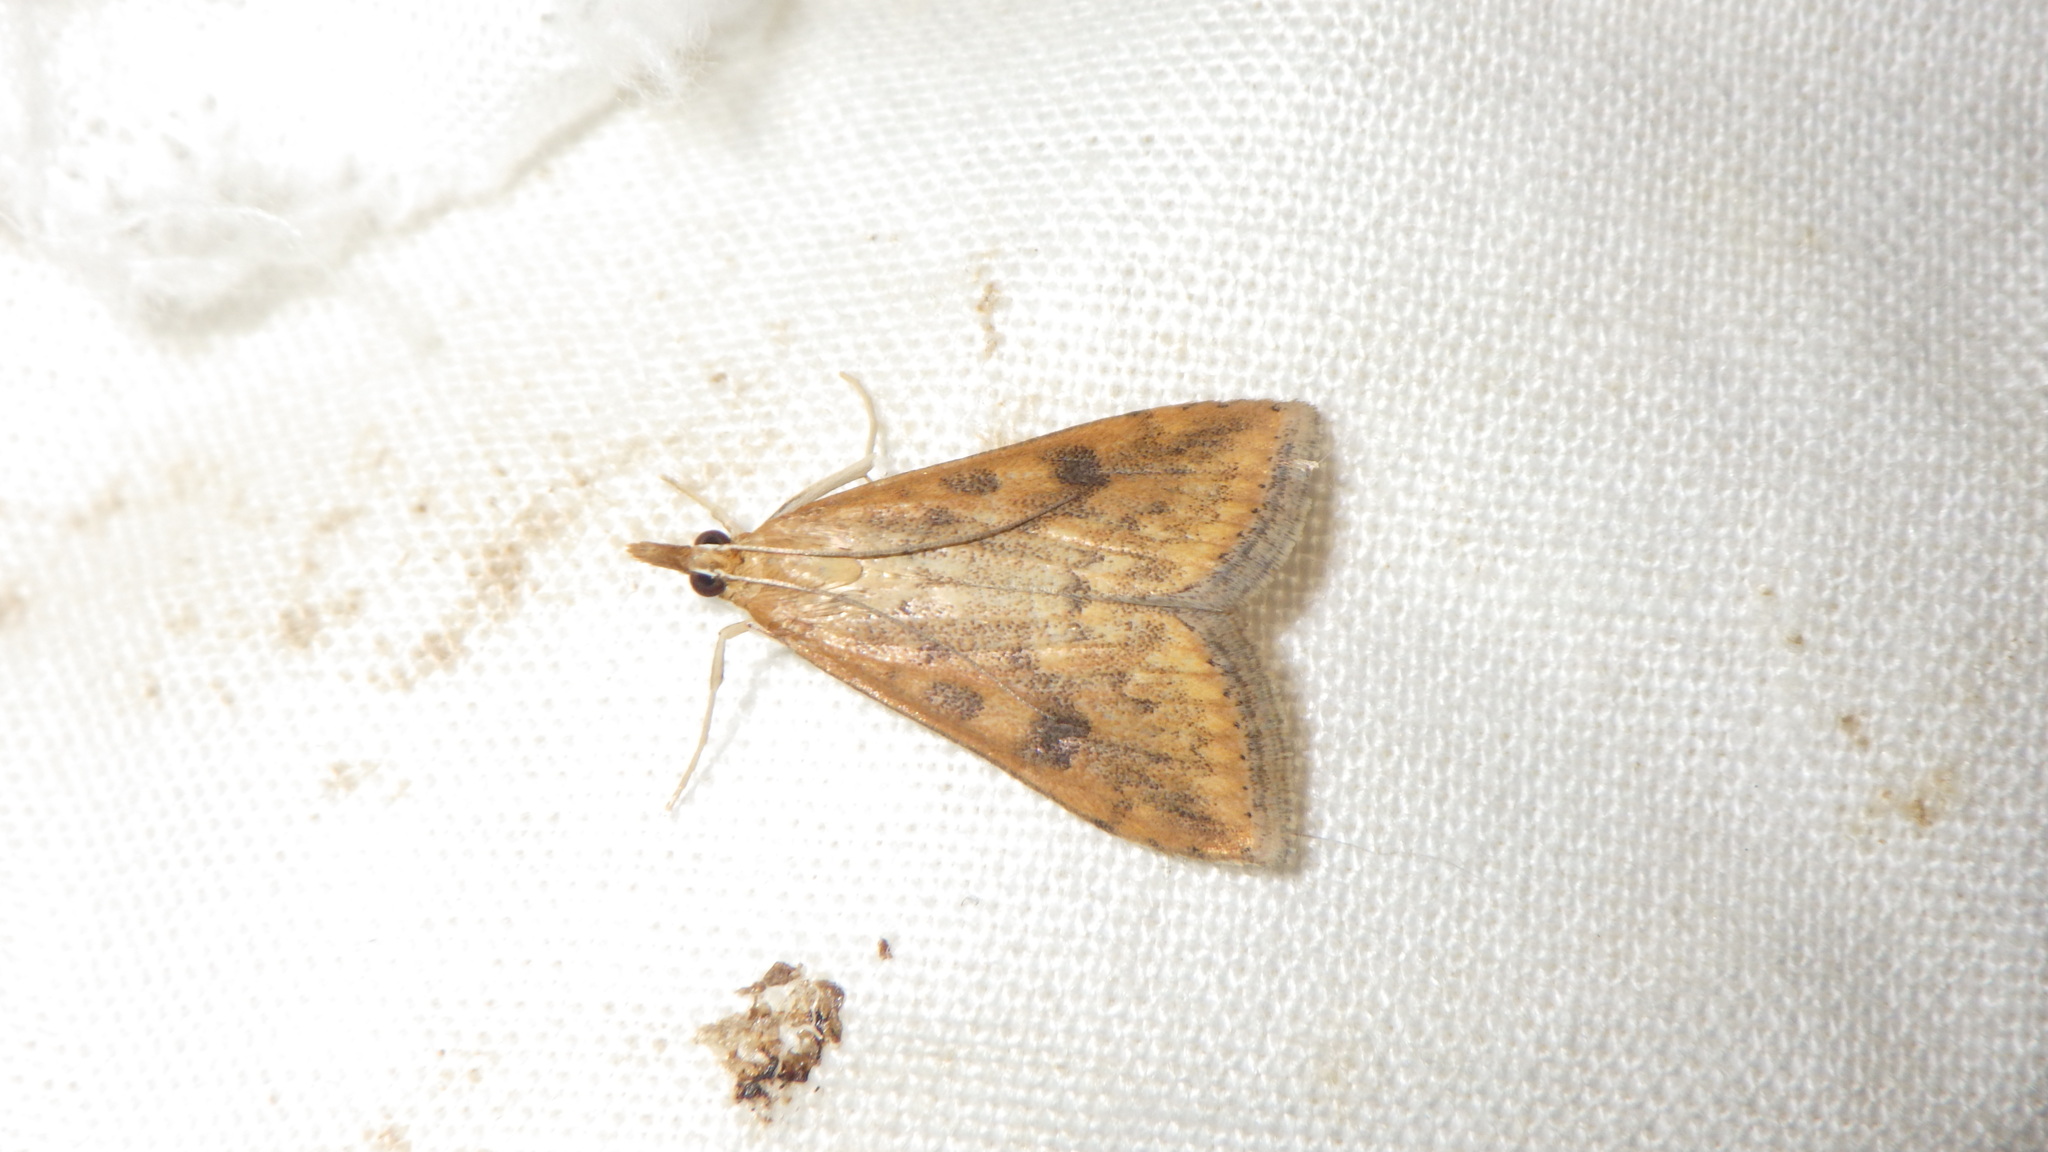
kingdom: Animalia
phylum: Arthropoda
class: Insecta
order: Lepidoptera
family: Crambidae
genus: Udea
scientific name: Udea ferrugalis
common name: Rusty dot
